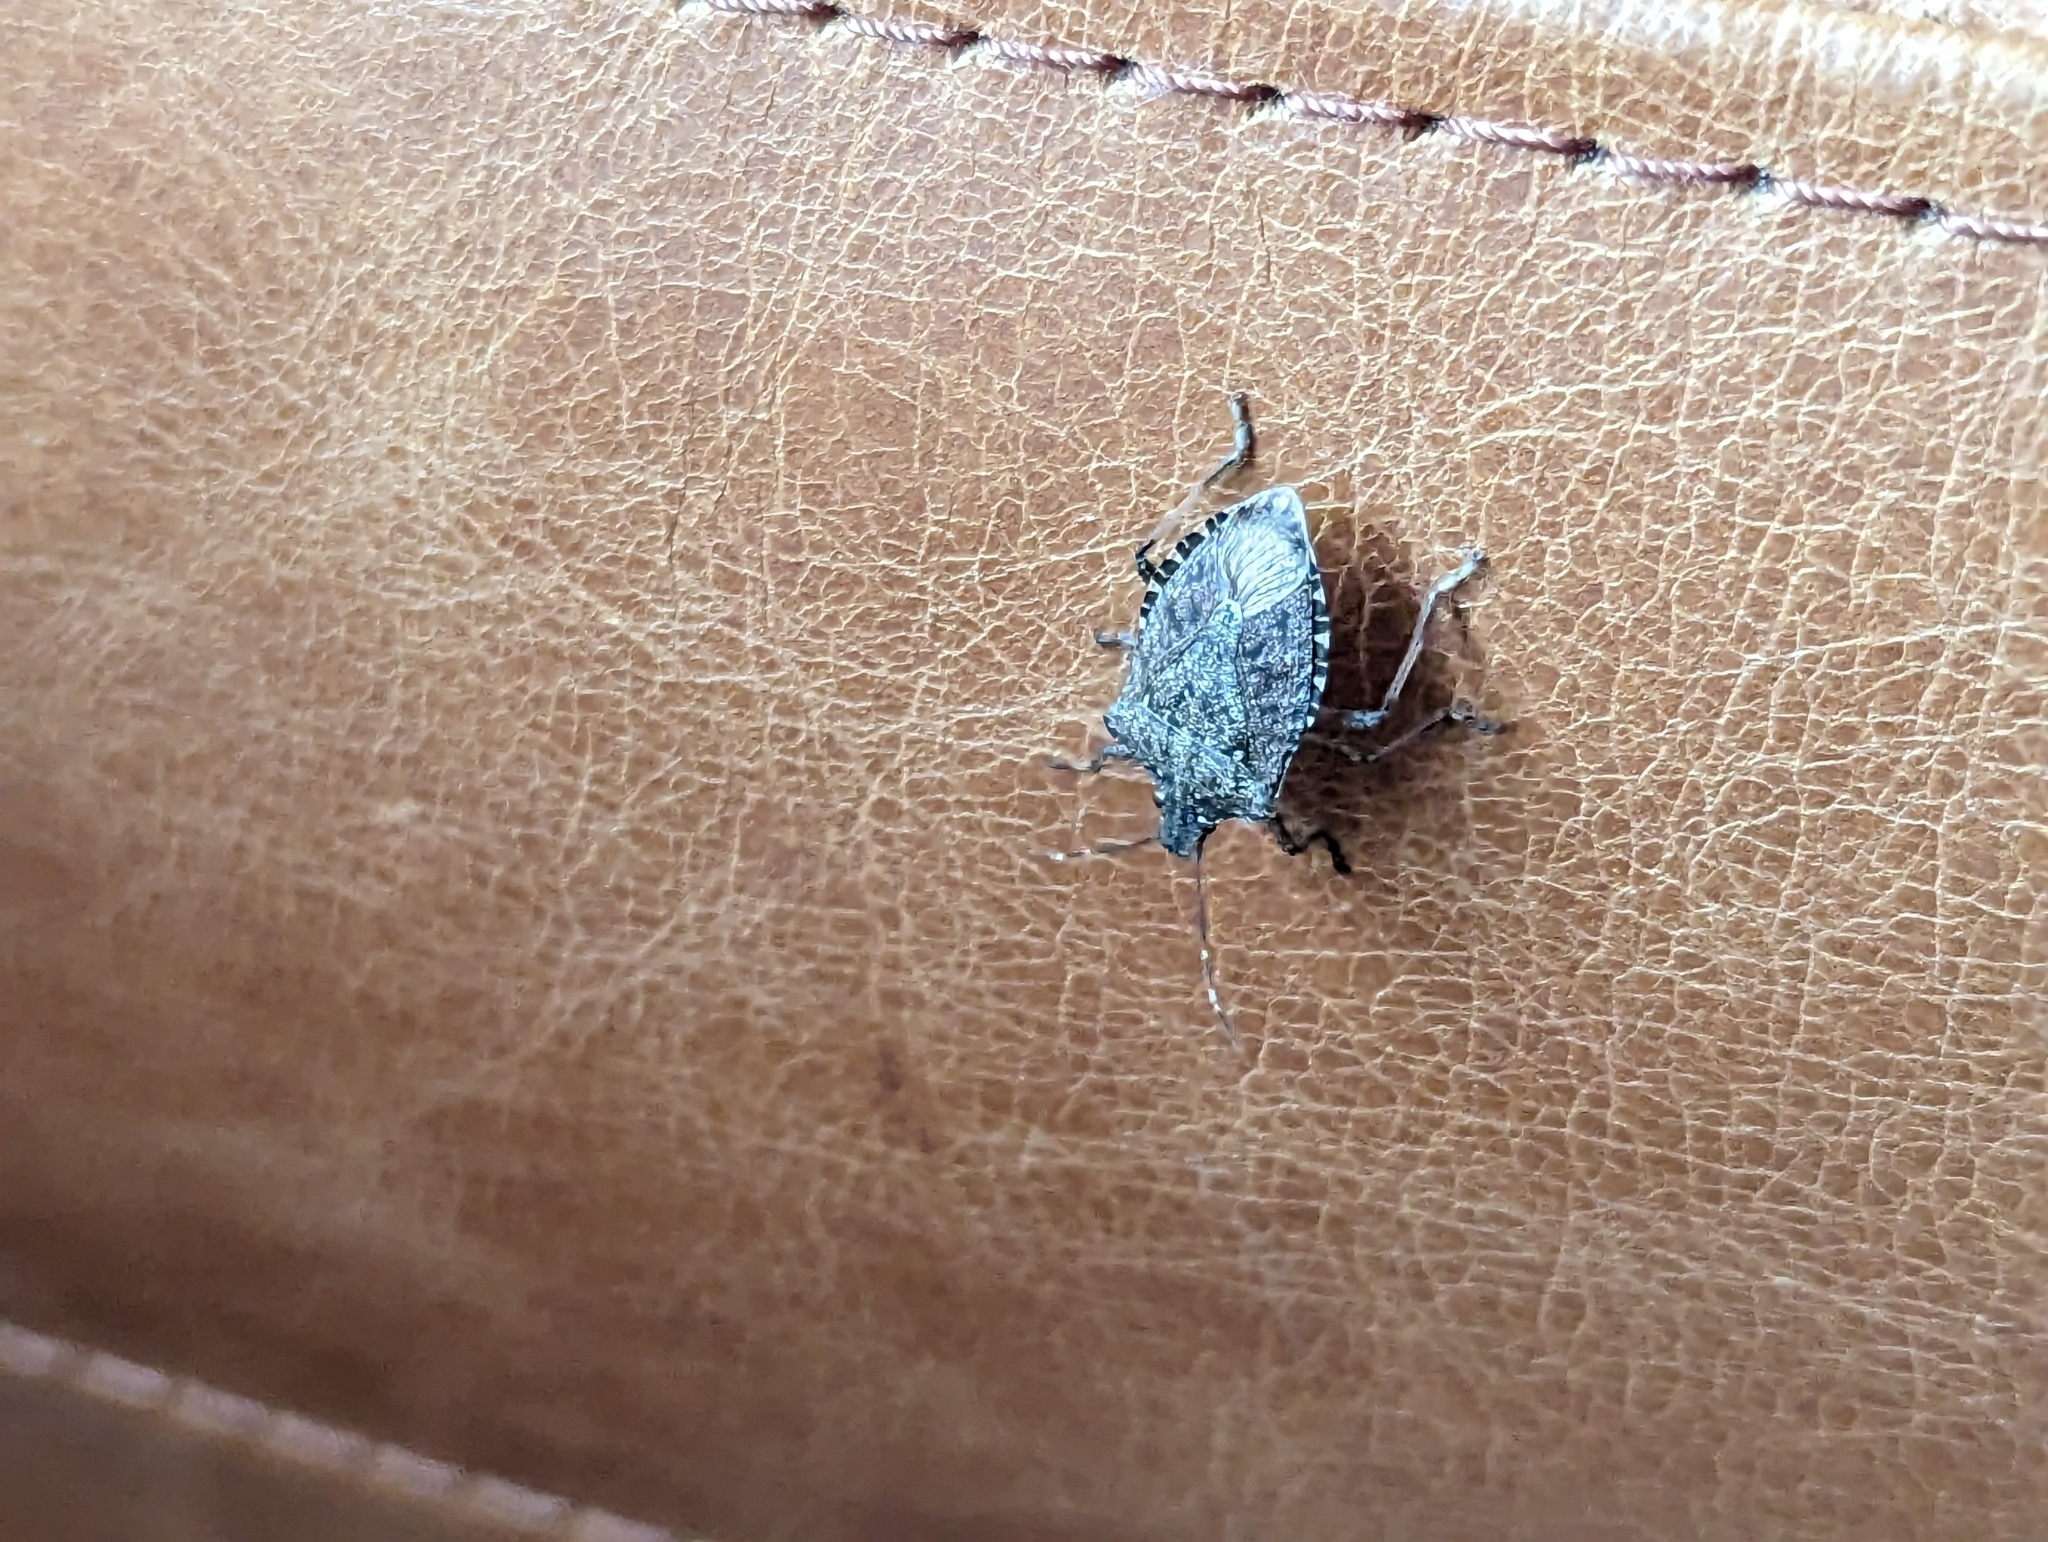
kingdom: Animalia
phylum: Arthropoda
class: Insecta
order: Hemiptera
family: Pentatomidae
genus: Halyomorpha
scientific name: Halyomorpha halys
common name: Brown marmorated stink bug
